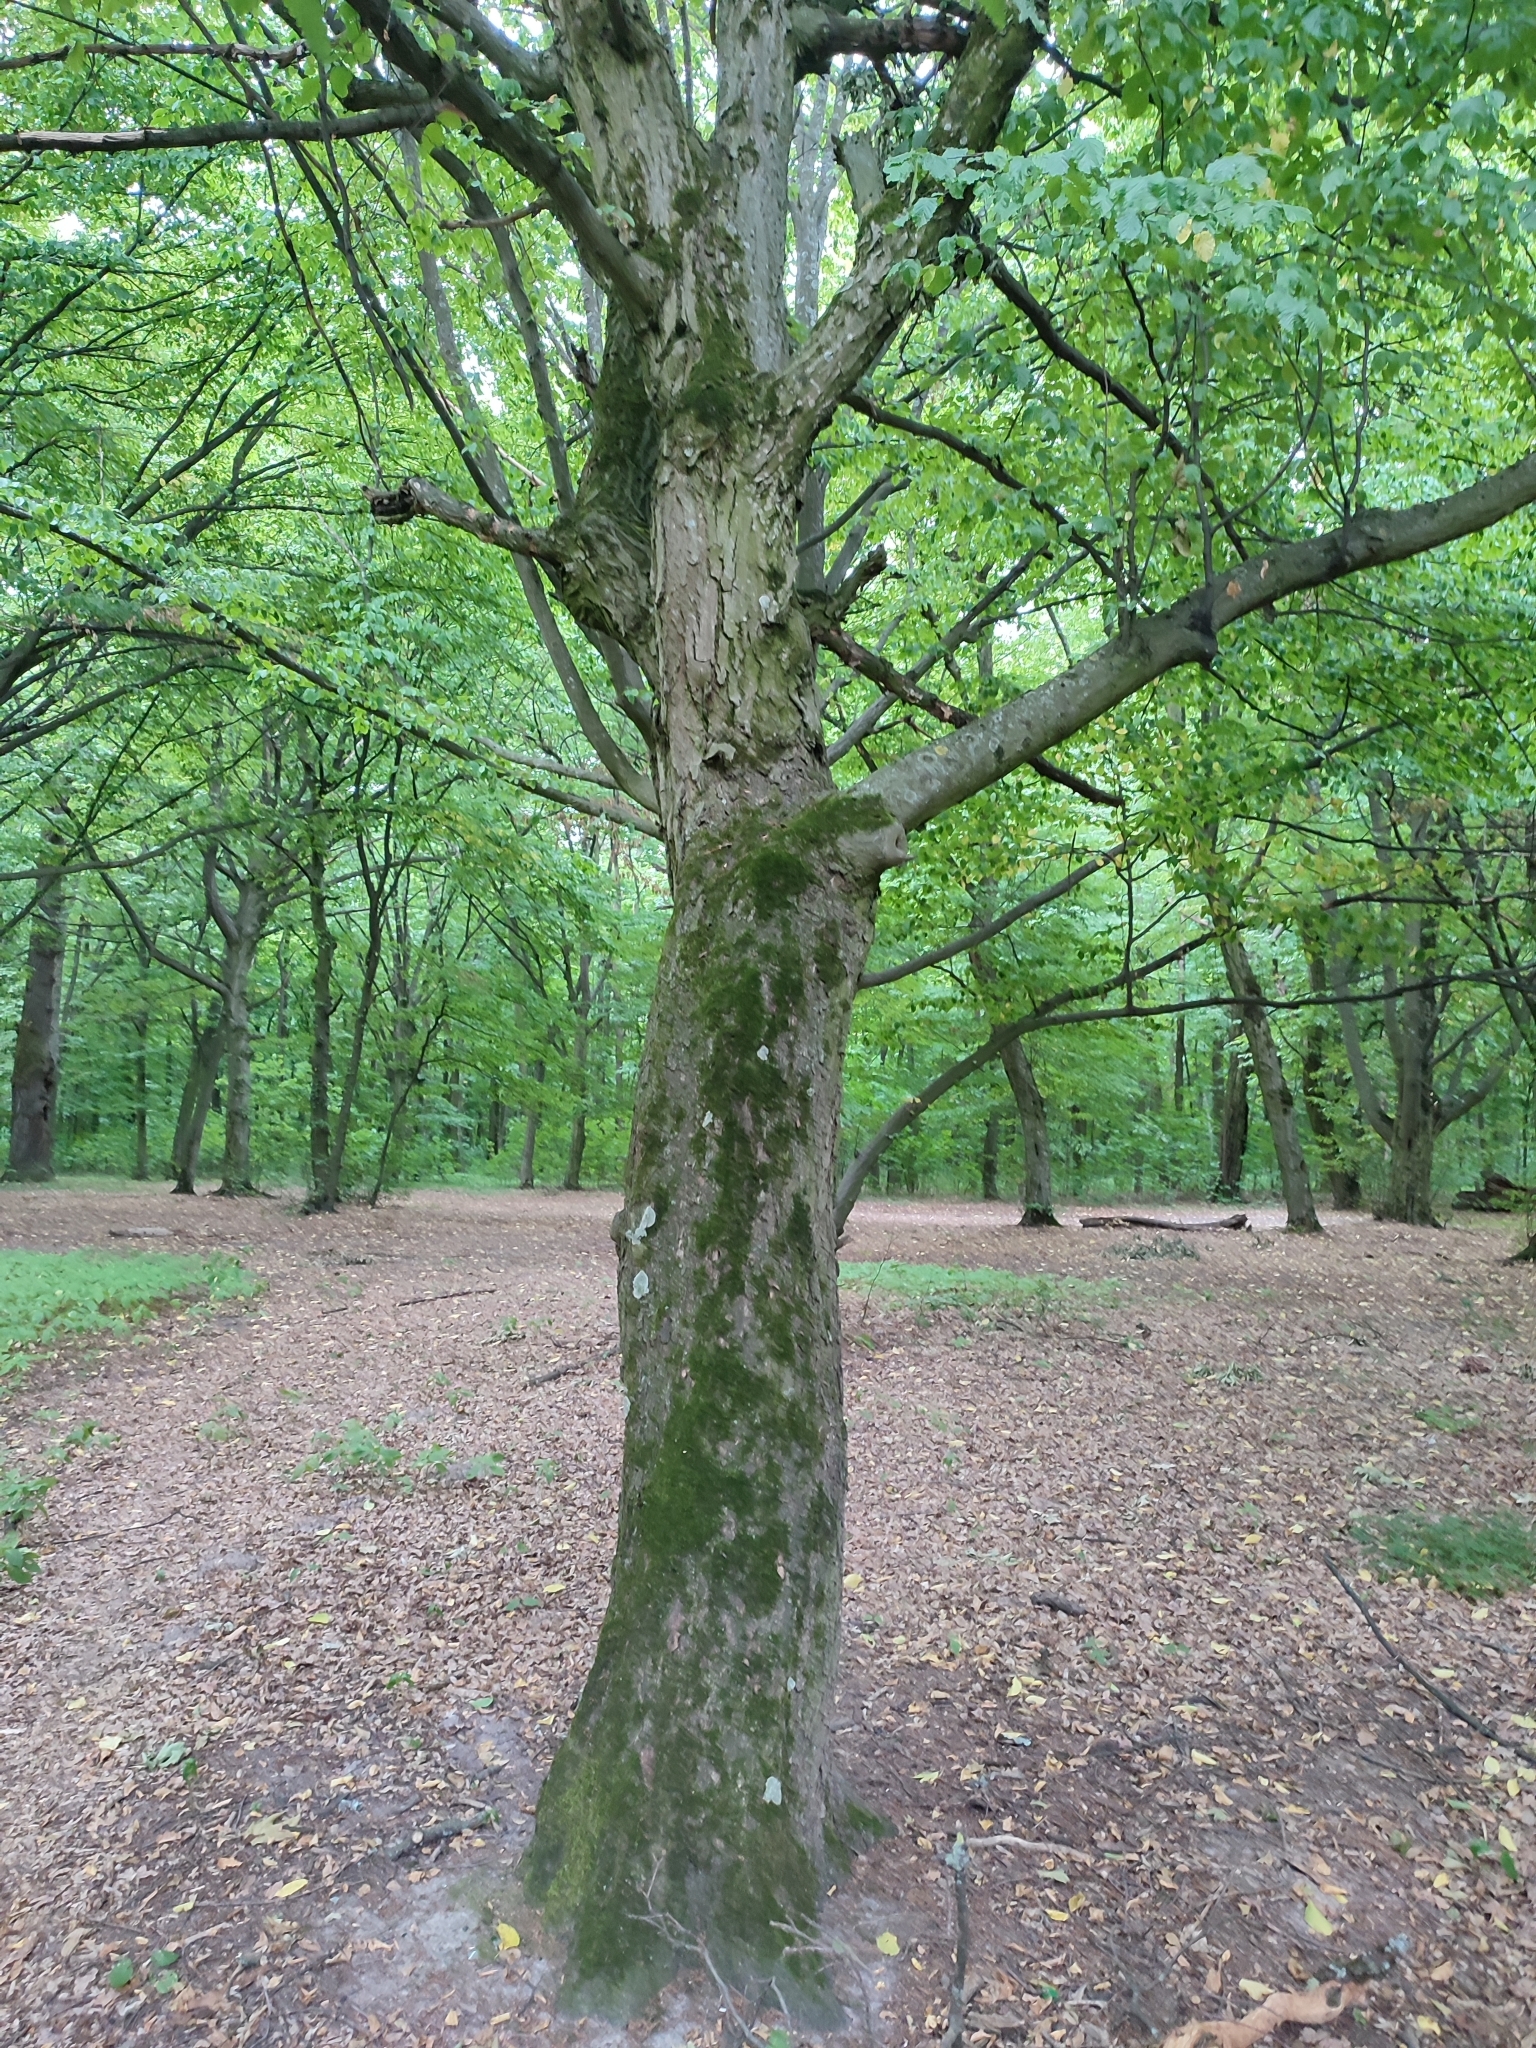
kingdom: Plantae
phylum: Tracheophyta
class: Magnoliopsida
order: Fagales
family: Betulaceae
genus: Carpinus
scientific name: Carpinus betulus
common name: Hornbeam
